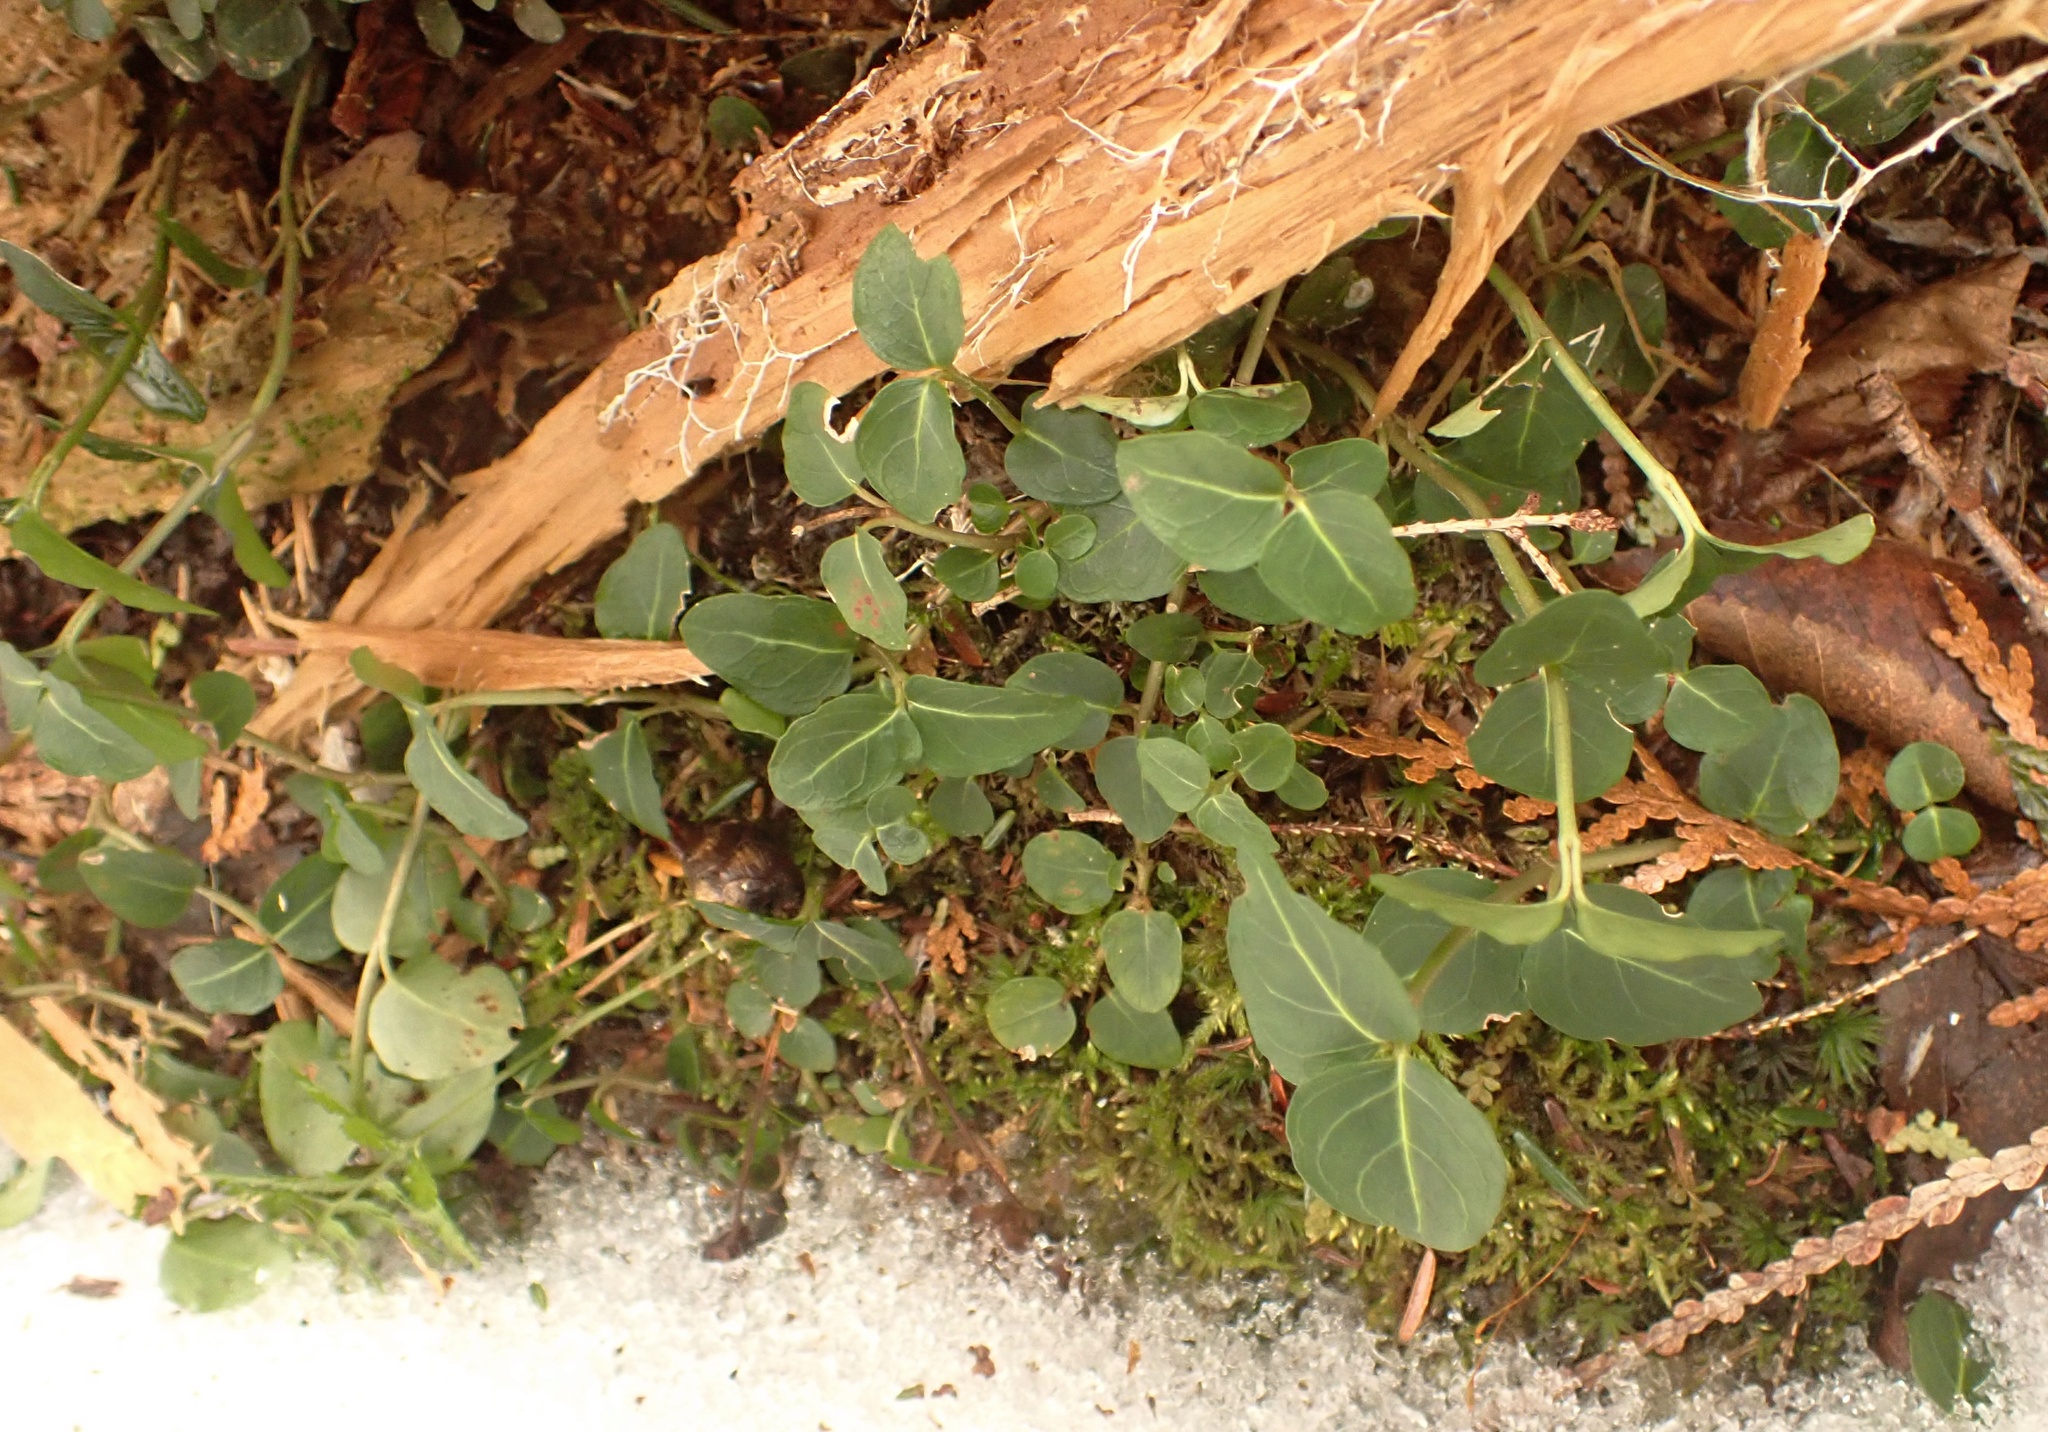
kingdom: Plantae
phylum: Tracheophyta
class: Magnoliopsida
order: Gentianales
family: Rubiaceae
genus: Mitchella
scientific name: Mitchella repens
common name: Partridge-berry
